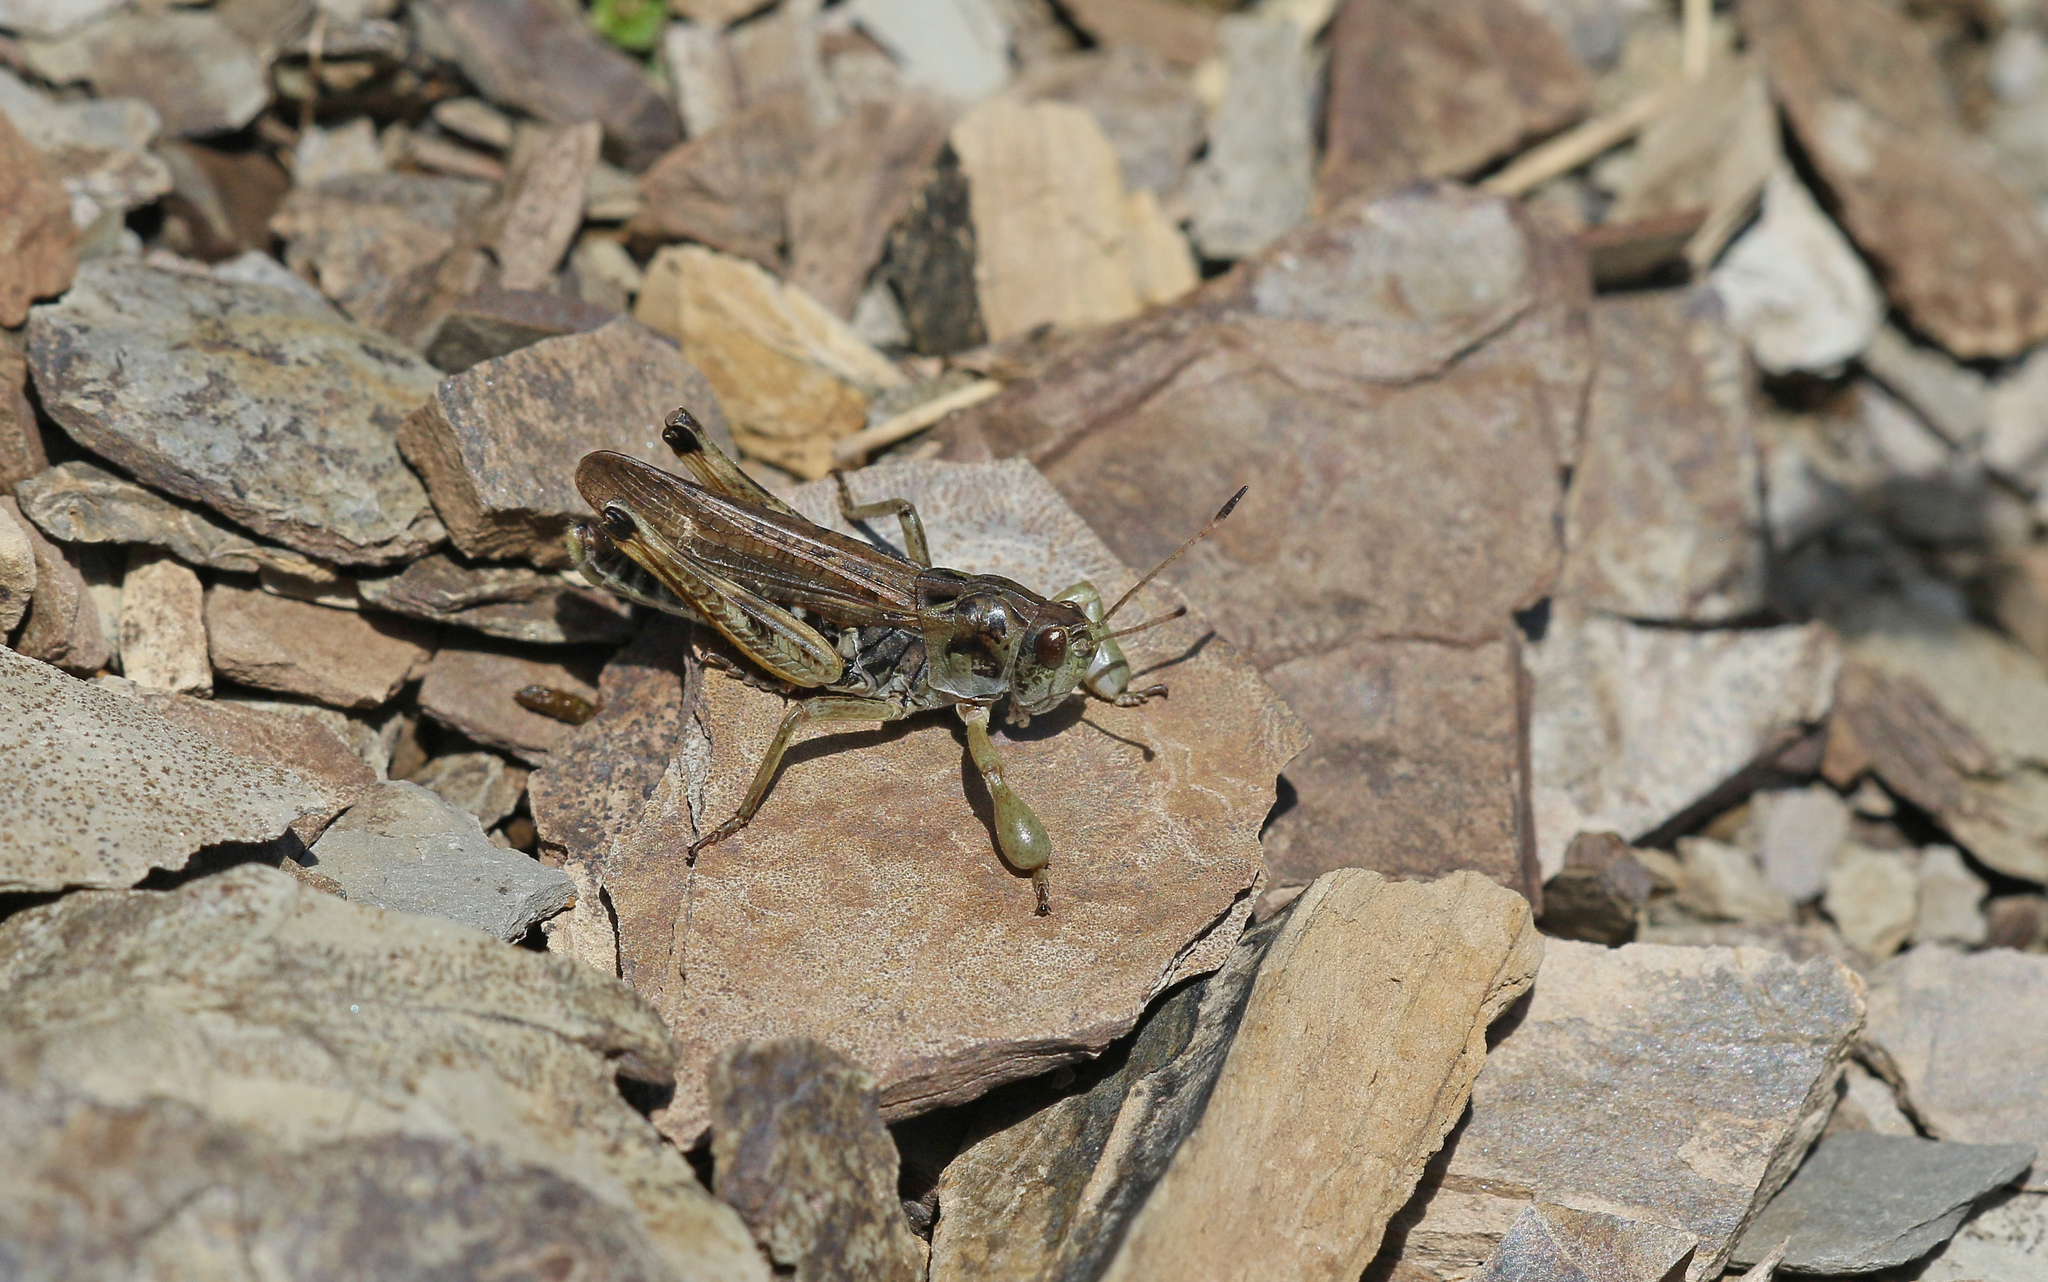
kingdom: Animalia
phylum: Arthropoda
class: Insecta
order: Orthoptera
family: Acrididae
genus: Gomphocerus
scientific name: Gomphocerus sibiricus
